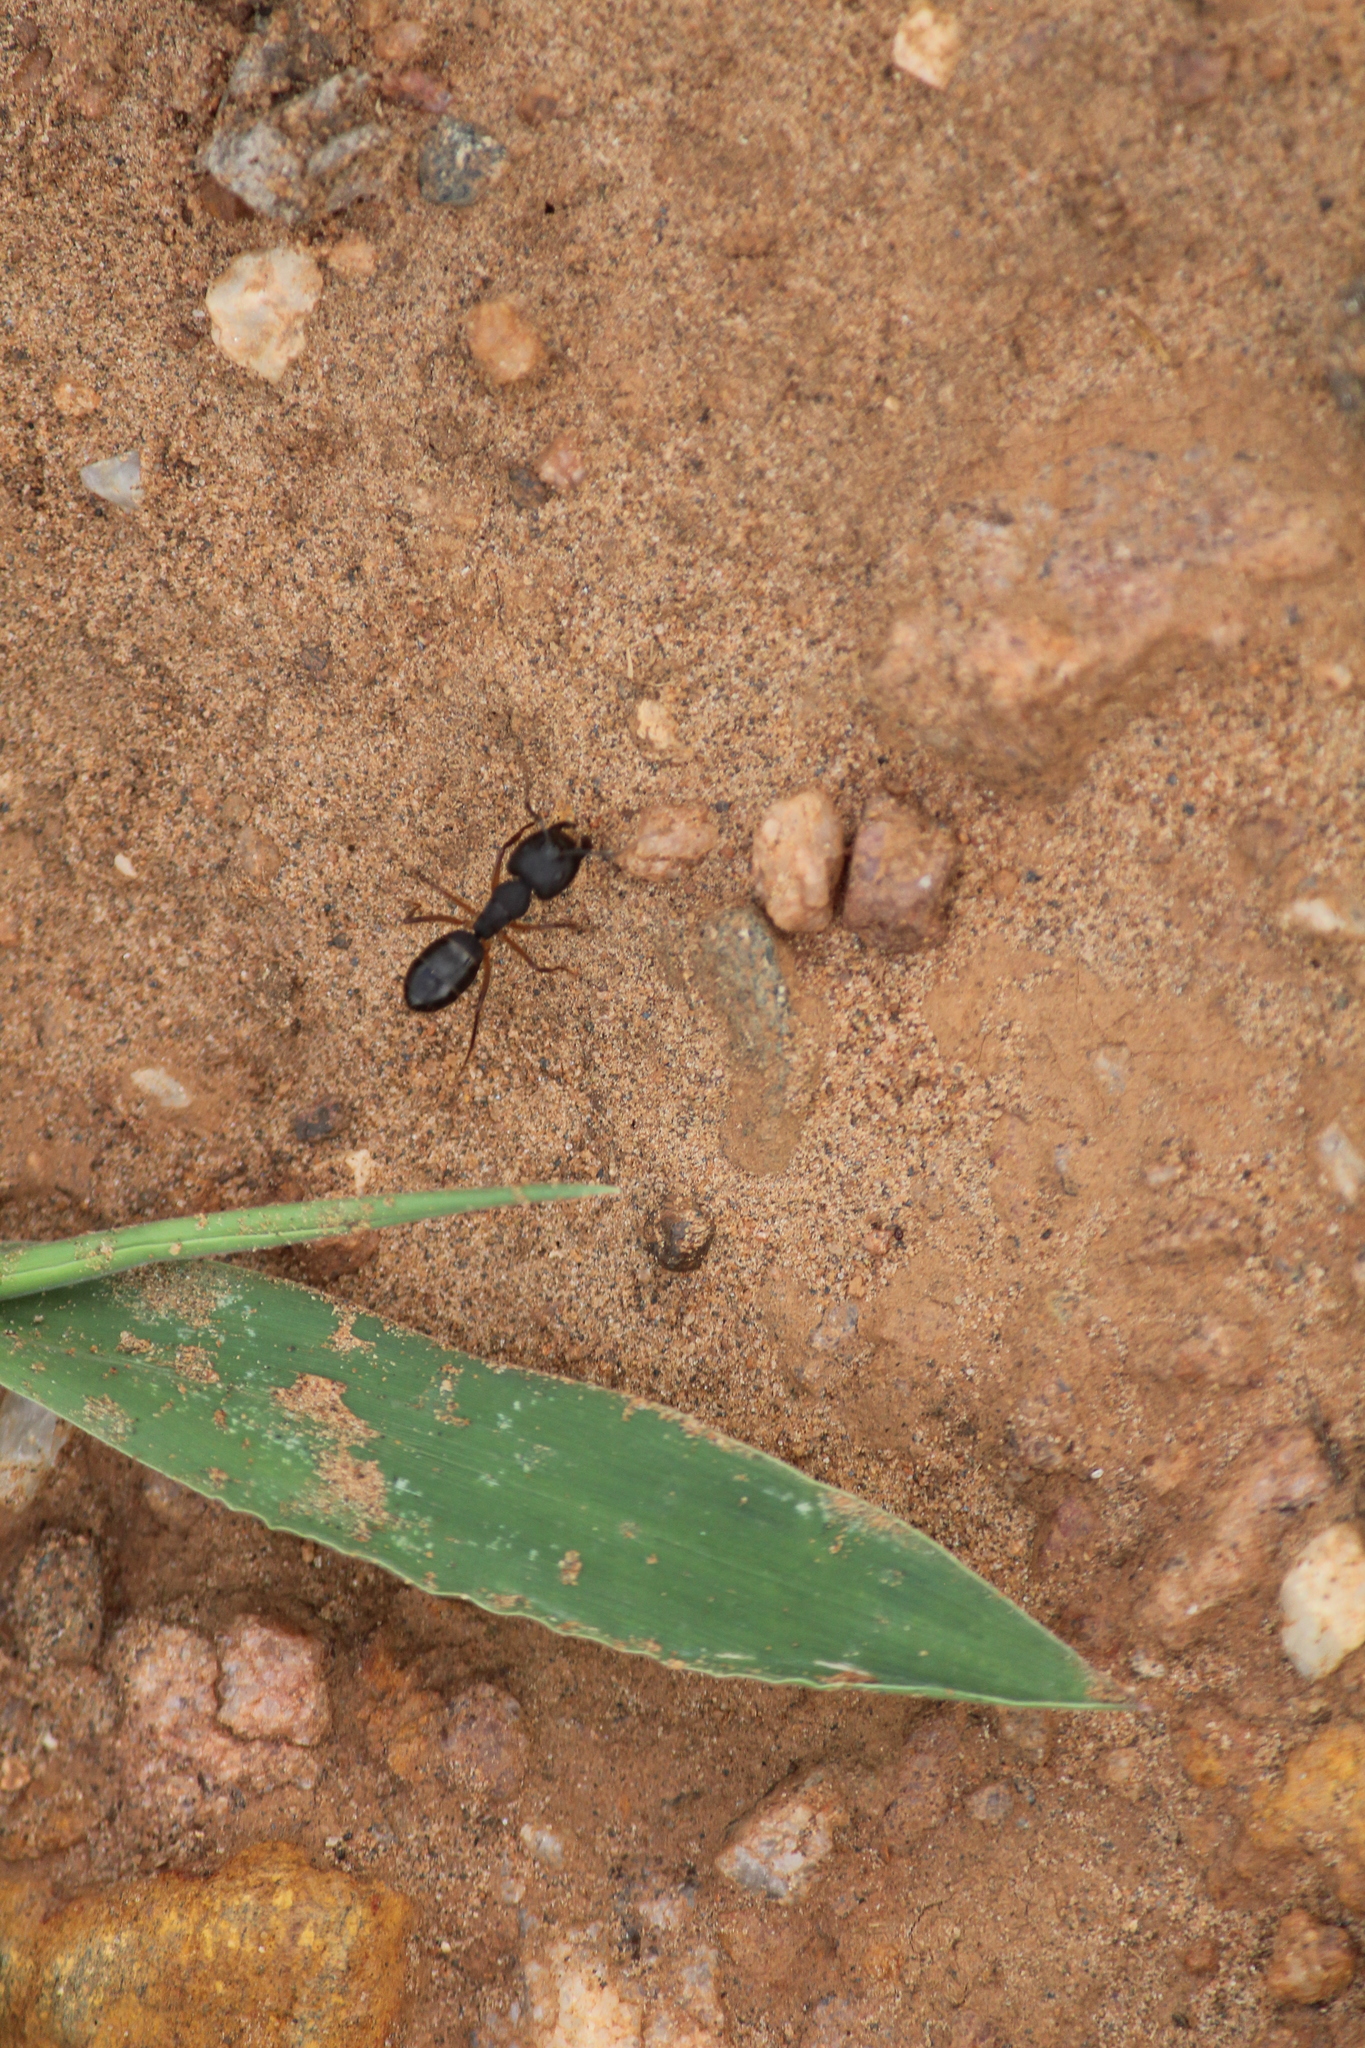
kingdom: Animalia
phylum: Arthropoda
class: Insecta
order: Hymenoptera
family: Formicidae
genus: Camponotus
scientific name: Camponotus compressus
